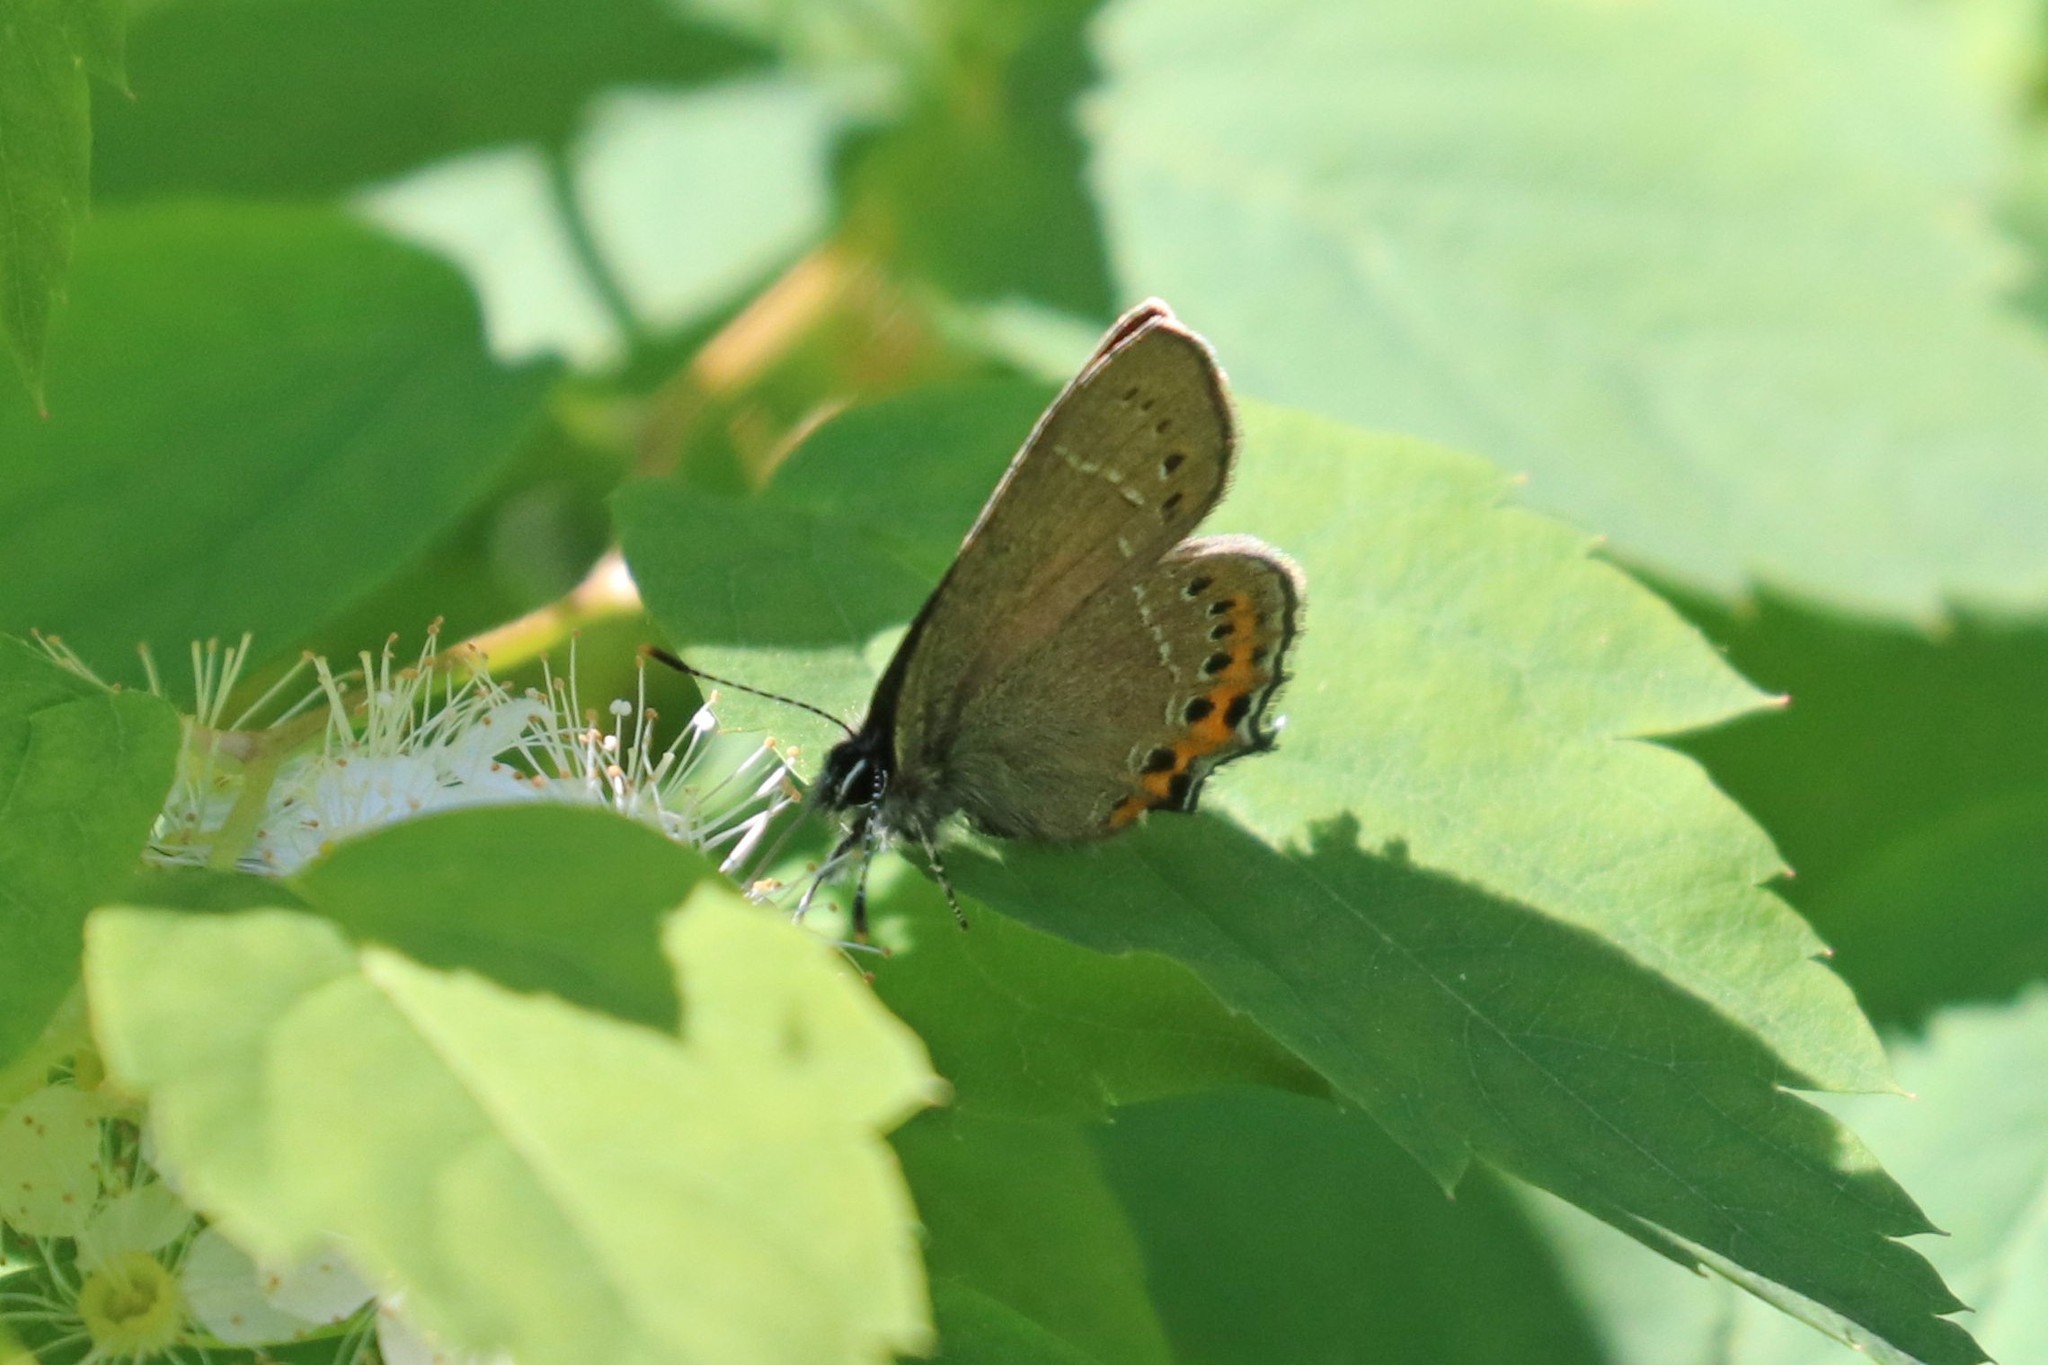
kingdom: Animalia
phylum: Arthropoda
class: Insecta
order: Lepidoptera
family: Lycaenidae
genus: Fixsenia
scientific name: Fixsenia pruni
